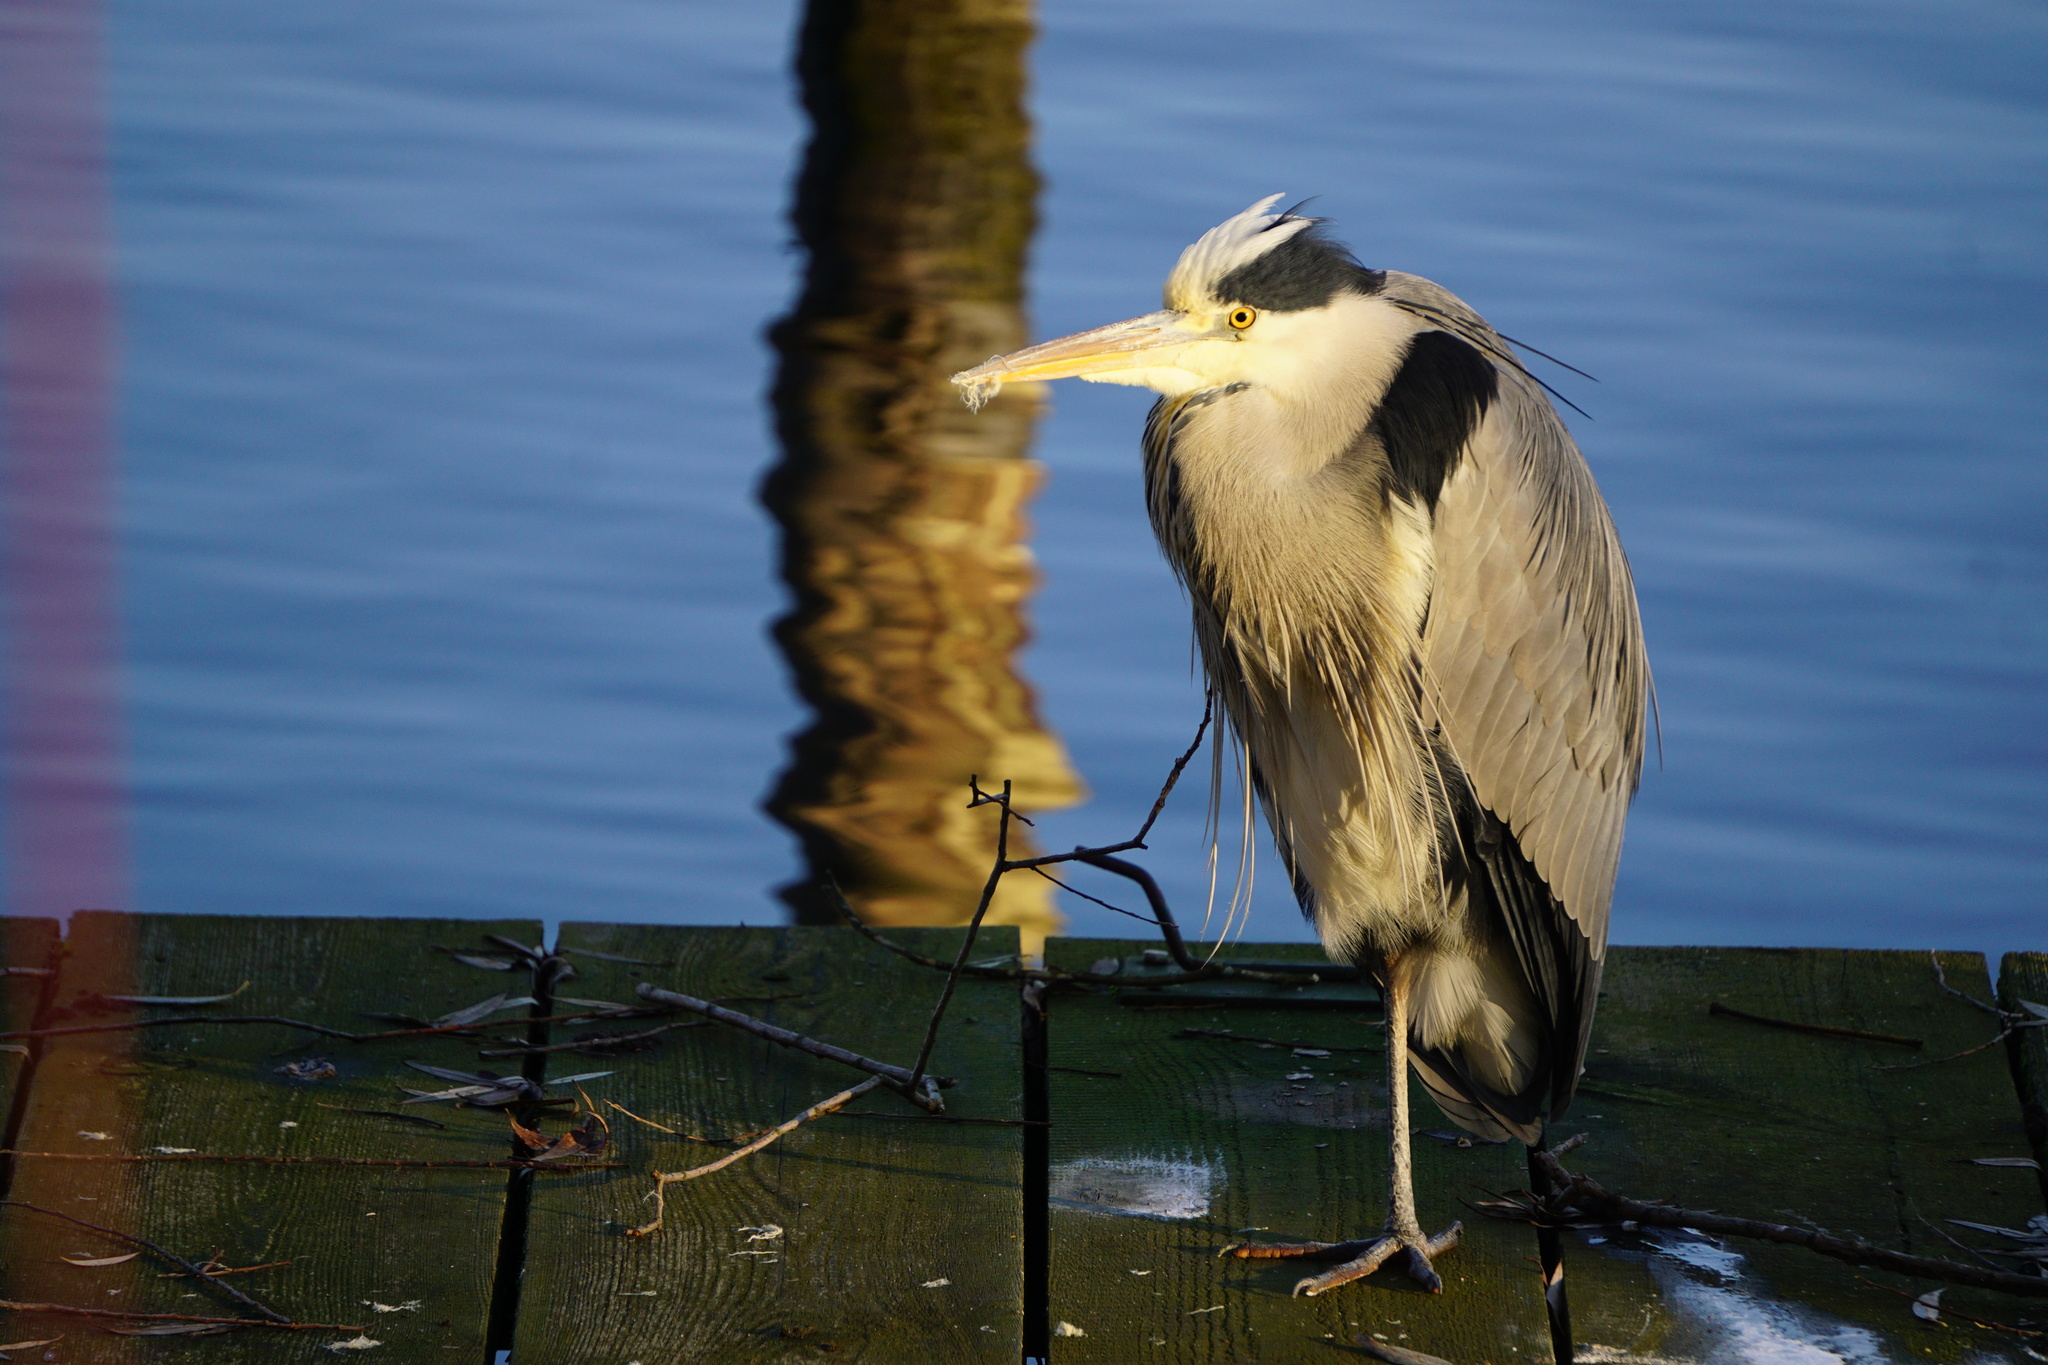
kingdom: Animalia
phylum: Chordata
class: Aves
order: Pelecaniformes
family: Ardeidae
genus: Ardea
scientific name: Ardea cinerea
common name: Grey heron
